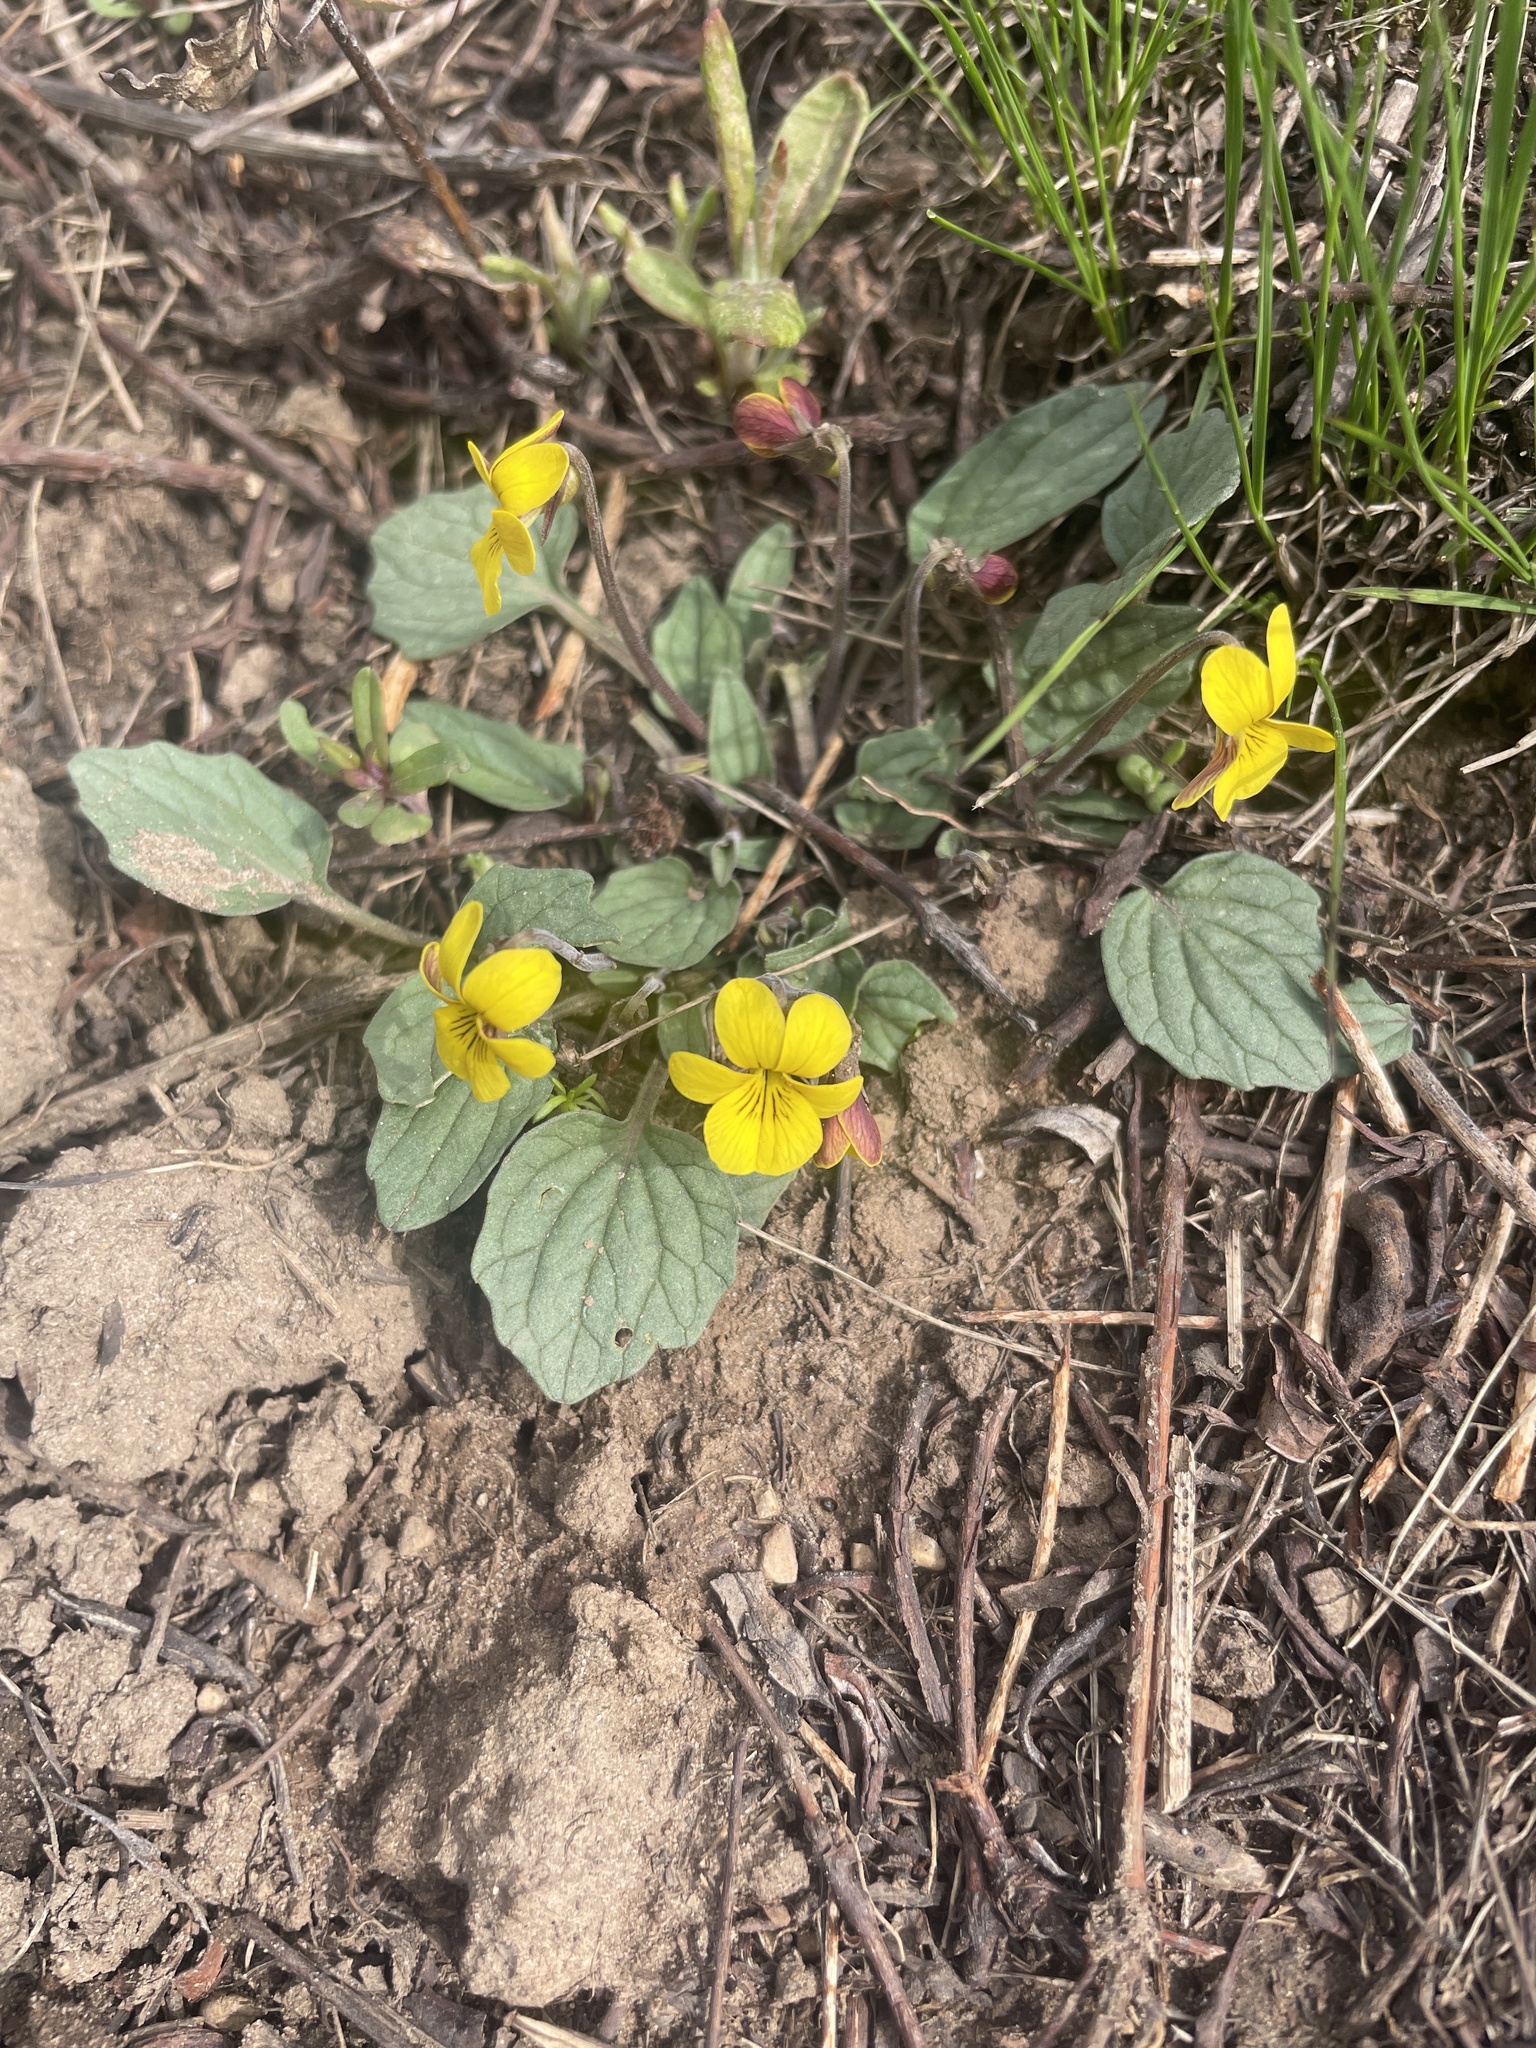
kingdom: Plantae
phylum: Tracheophyta
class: Magnoliopsida
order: Malpighiales
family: Violaceae
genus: Viola
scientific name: Viola utahensis
